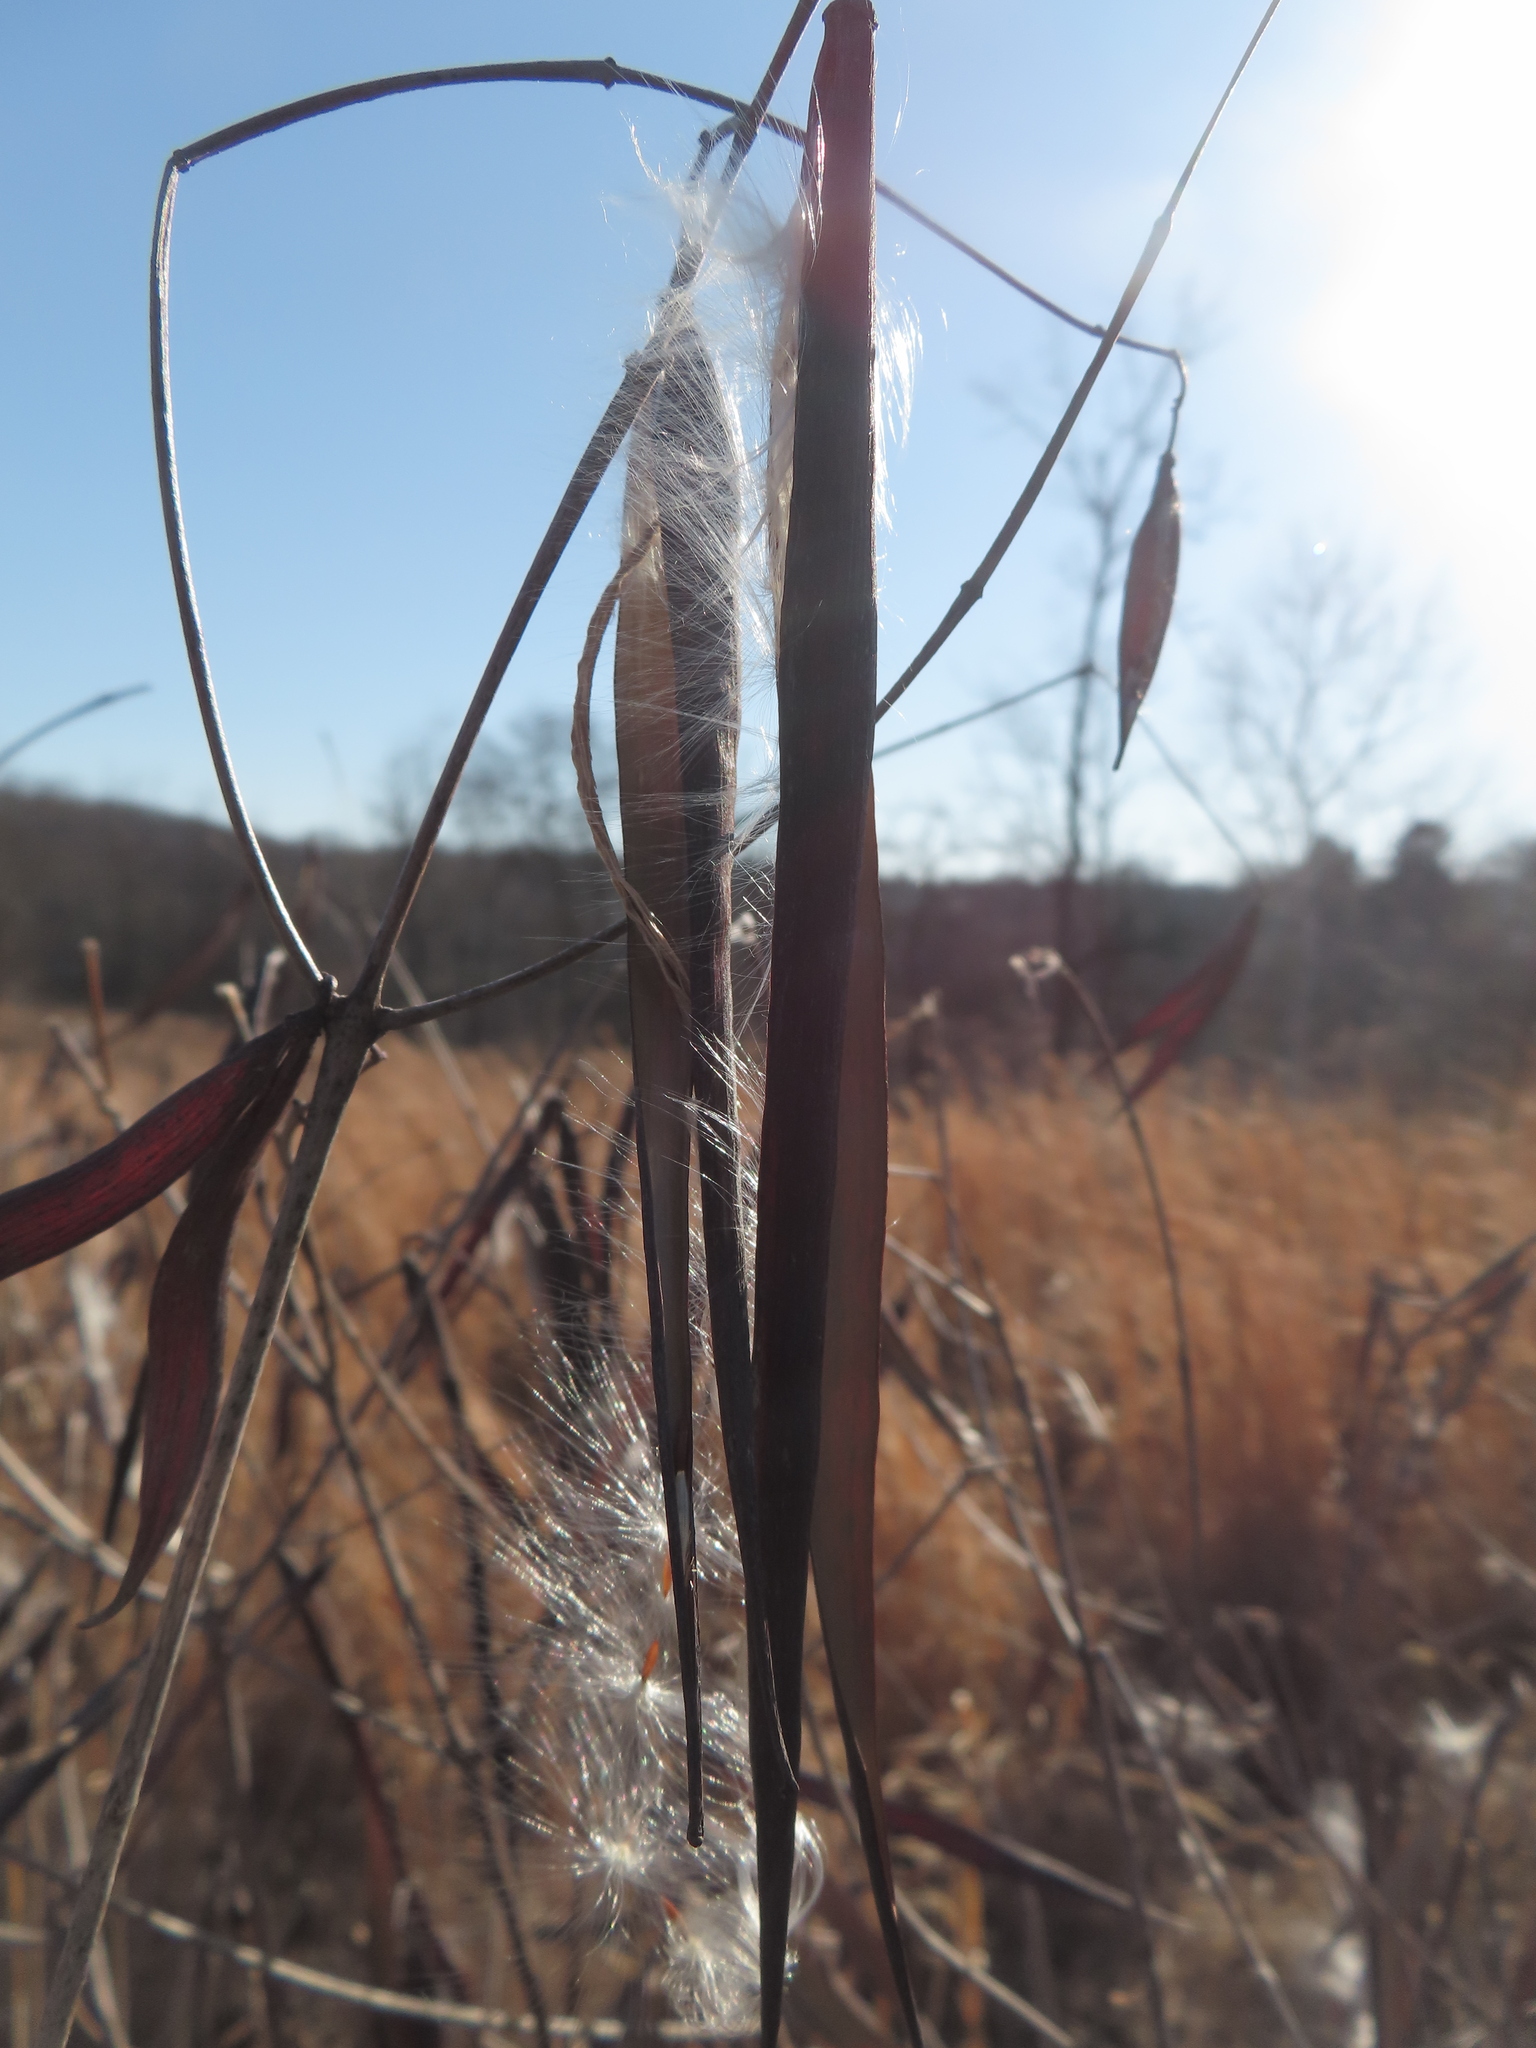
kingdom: Plantae
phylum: Tracheophyta
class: Magnoliopsida
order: Gentianales
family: Apocynaceae
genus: Apocynum
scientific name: Apocynum cannabinum
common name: Hemp dogbane
